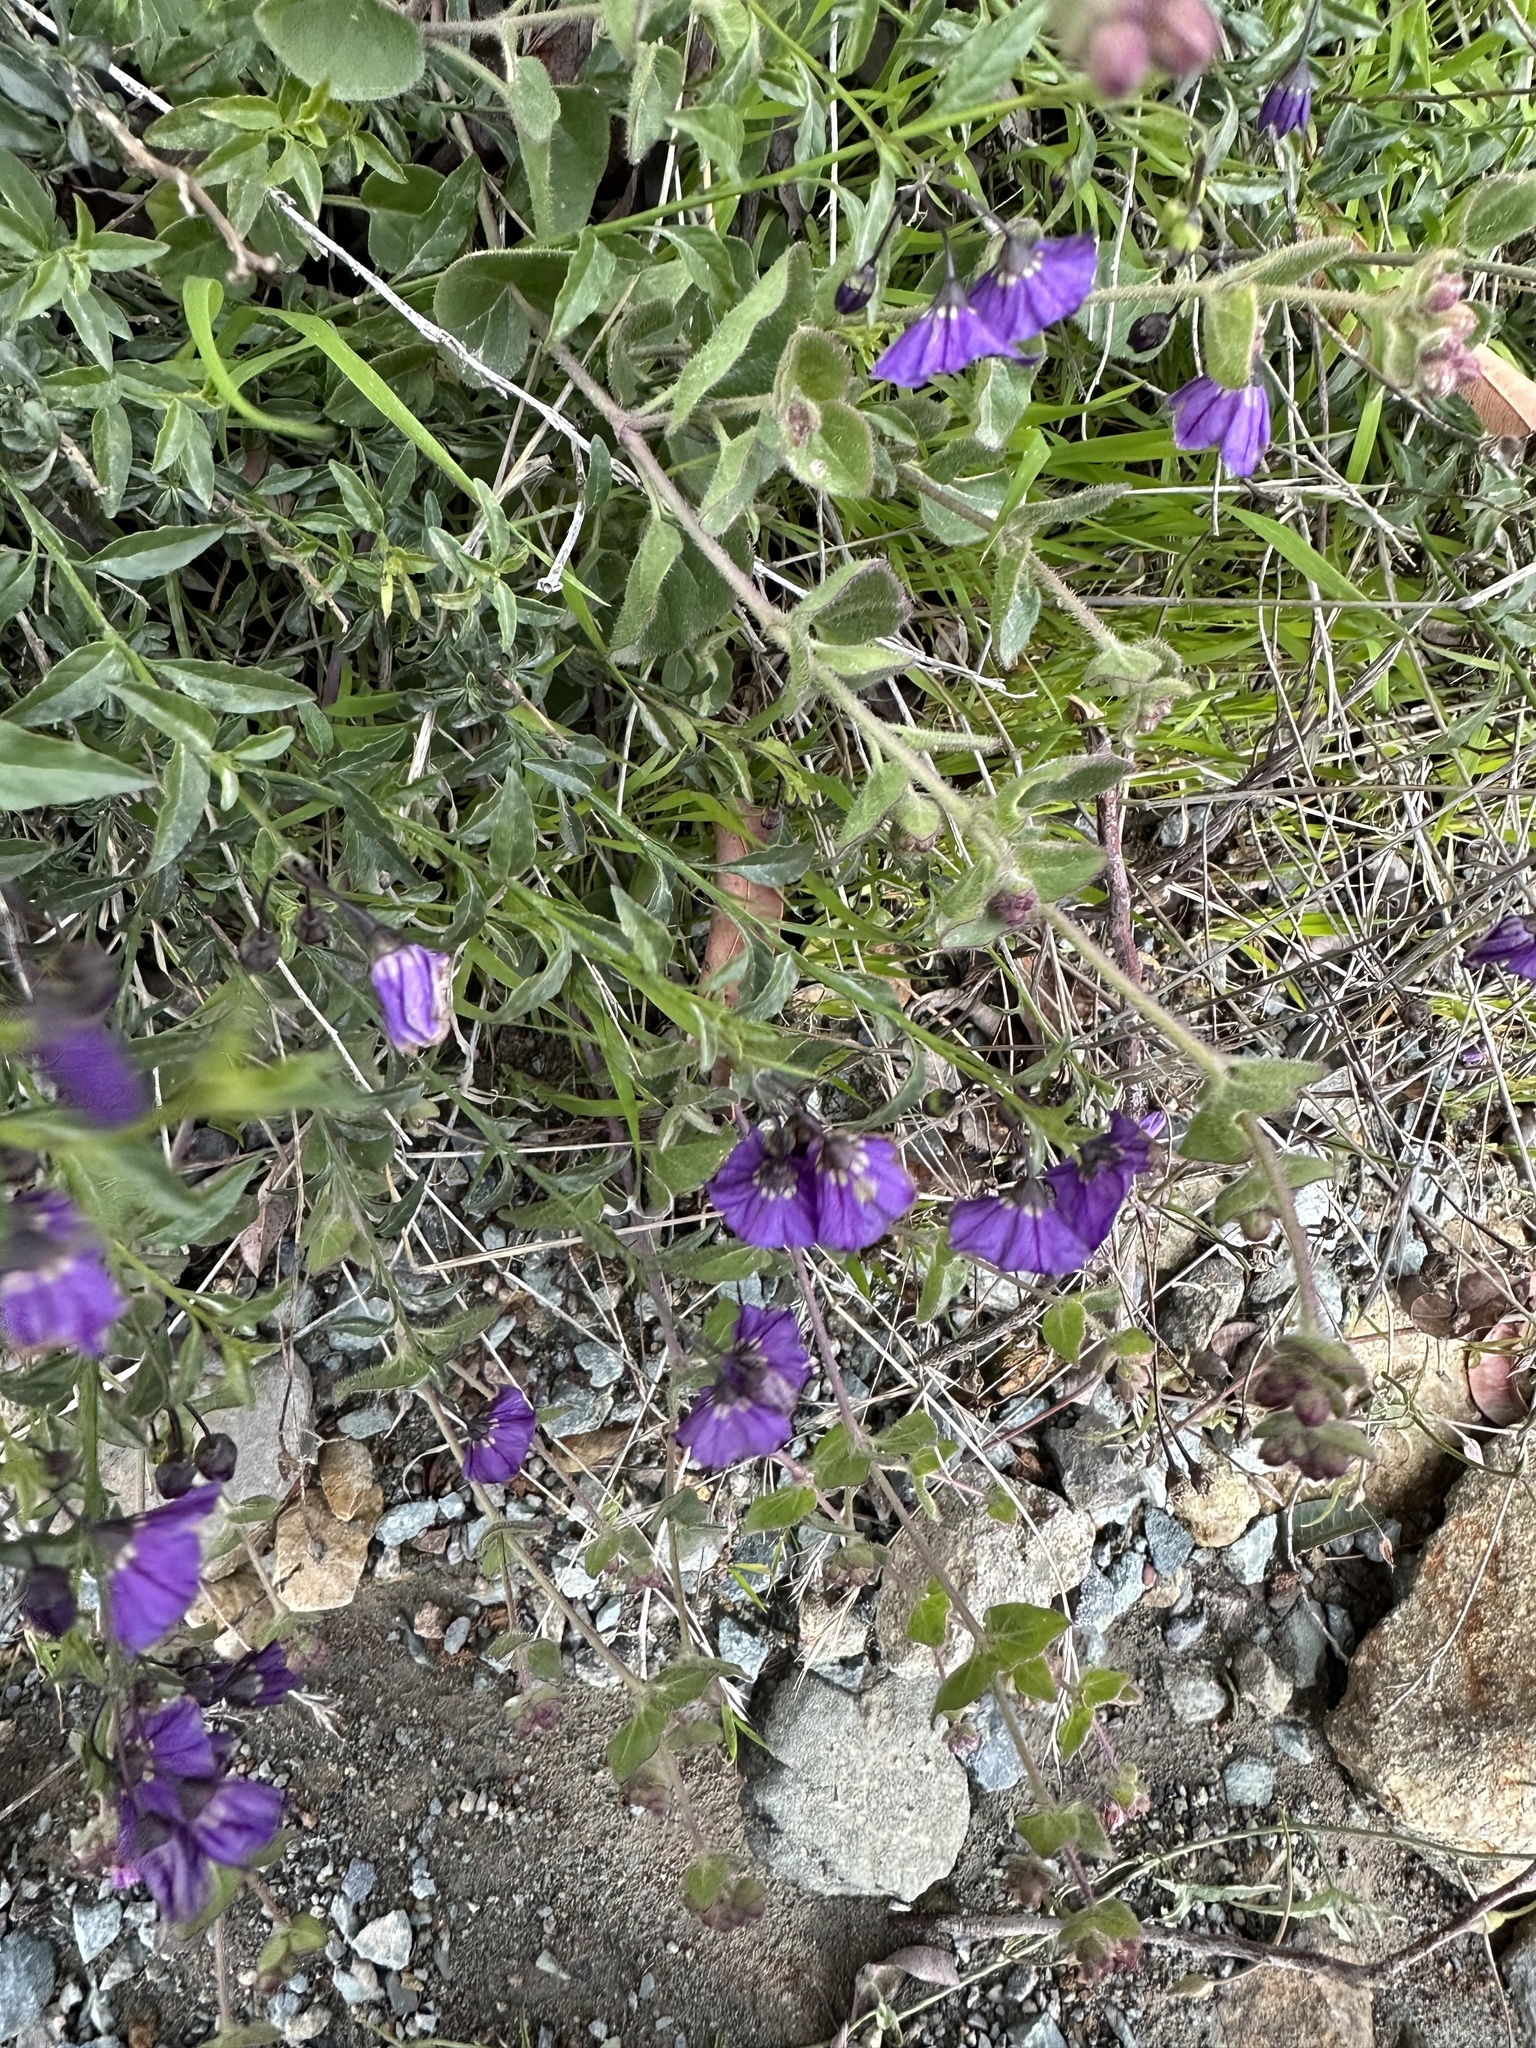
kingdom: Plantae
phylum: Tracheophyta
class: Magnoliopsida
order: Solanales
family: Solanaceae
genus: Solanum
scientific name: Solanum umbelliferum
